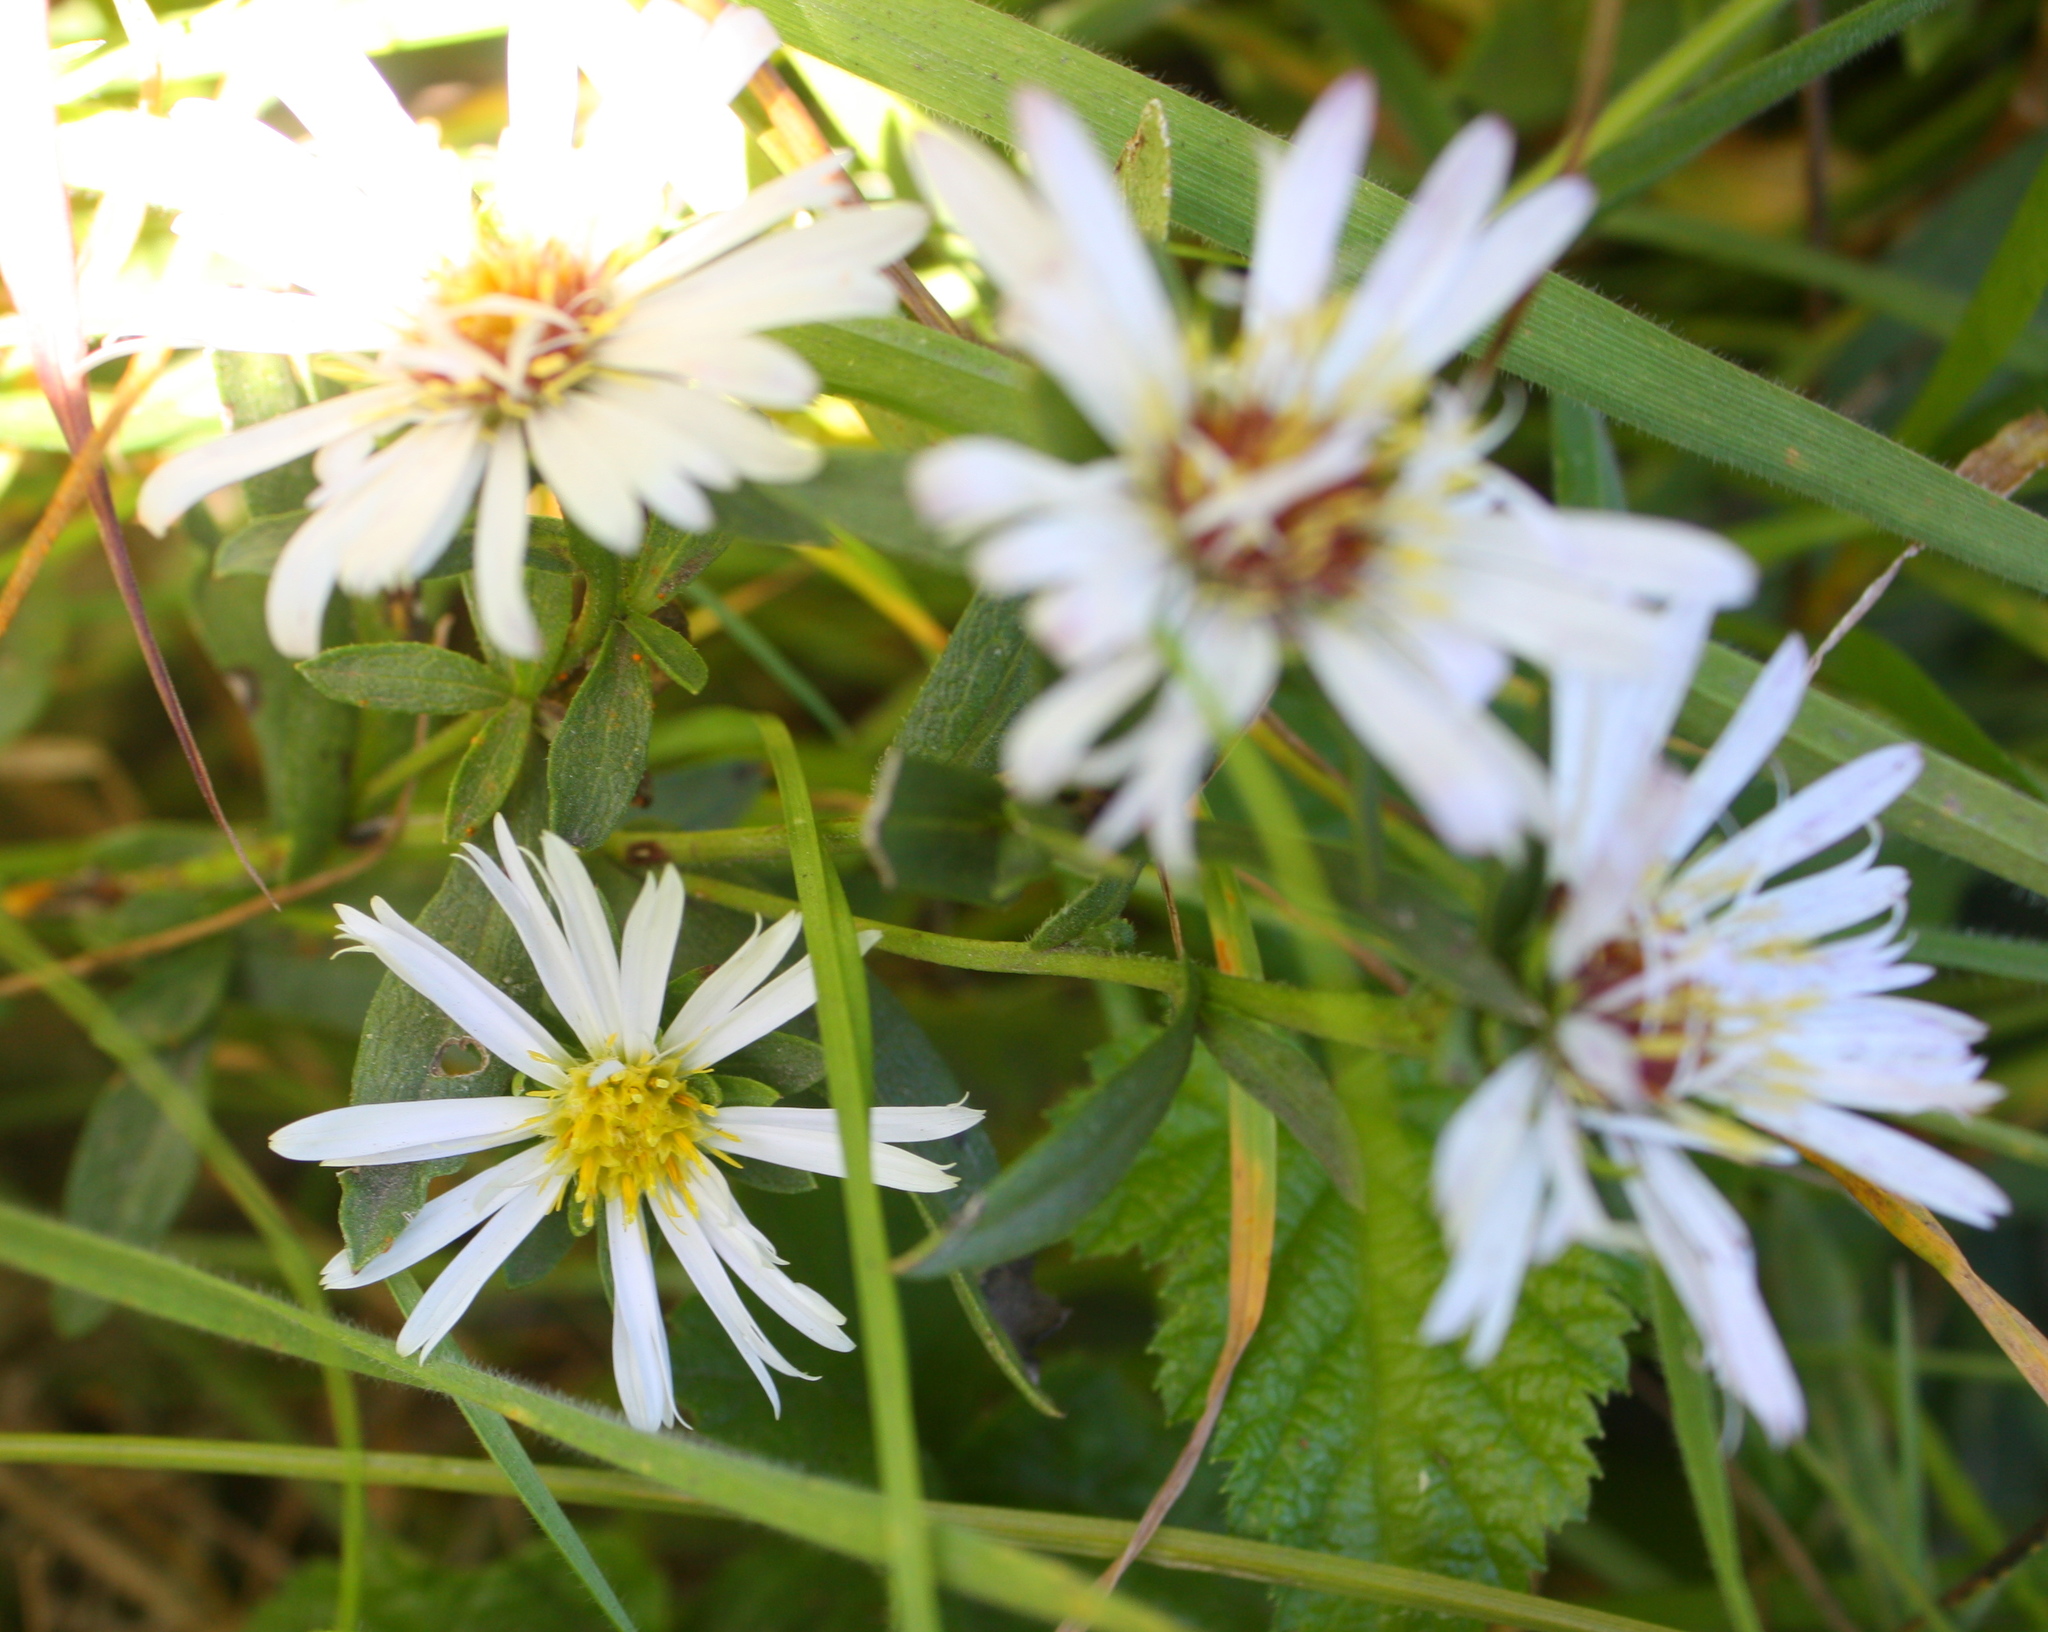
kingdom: Plantae
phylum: Tracheophyta
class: Magnoliopsida
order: Asterales
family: Asteraceae
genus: Symphyotrichum
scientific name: Symphyotrichum chilense
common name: Pacific aster
